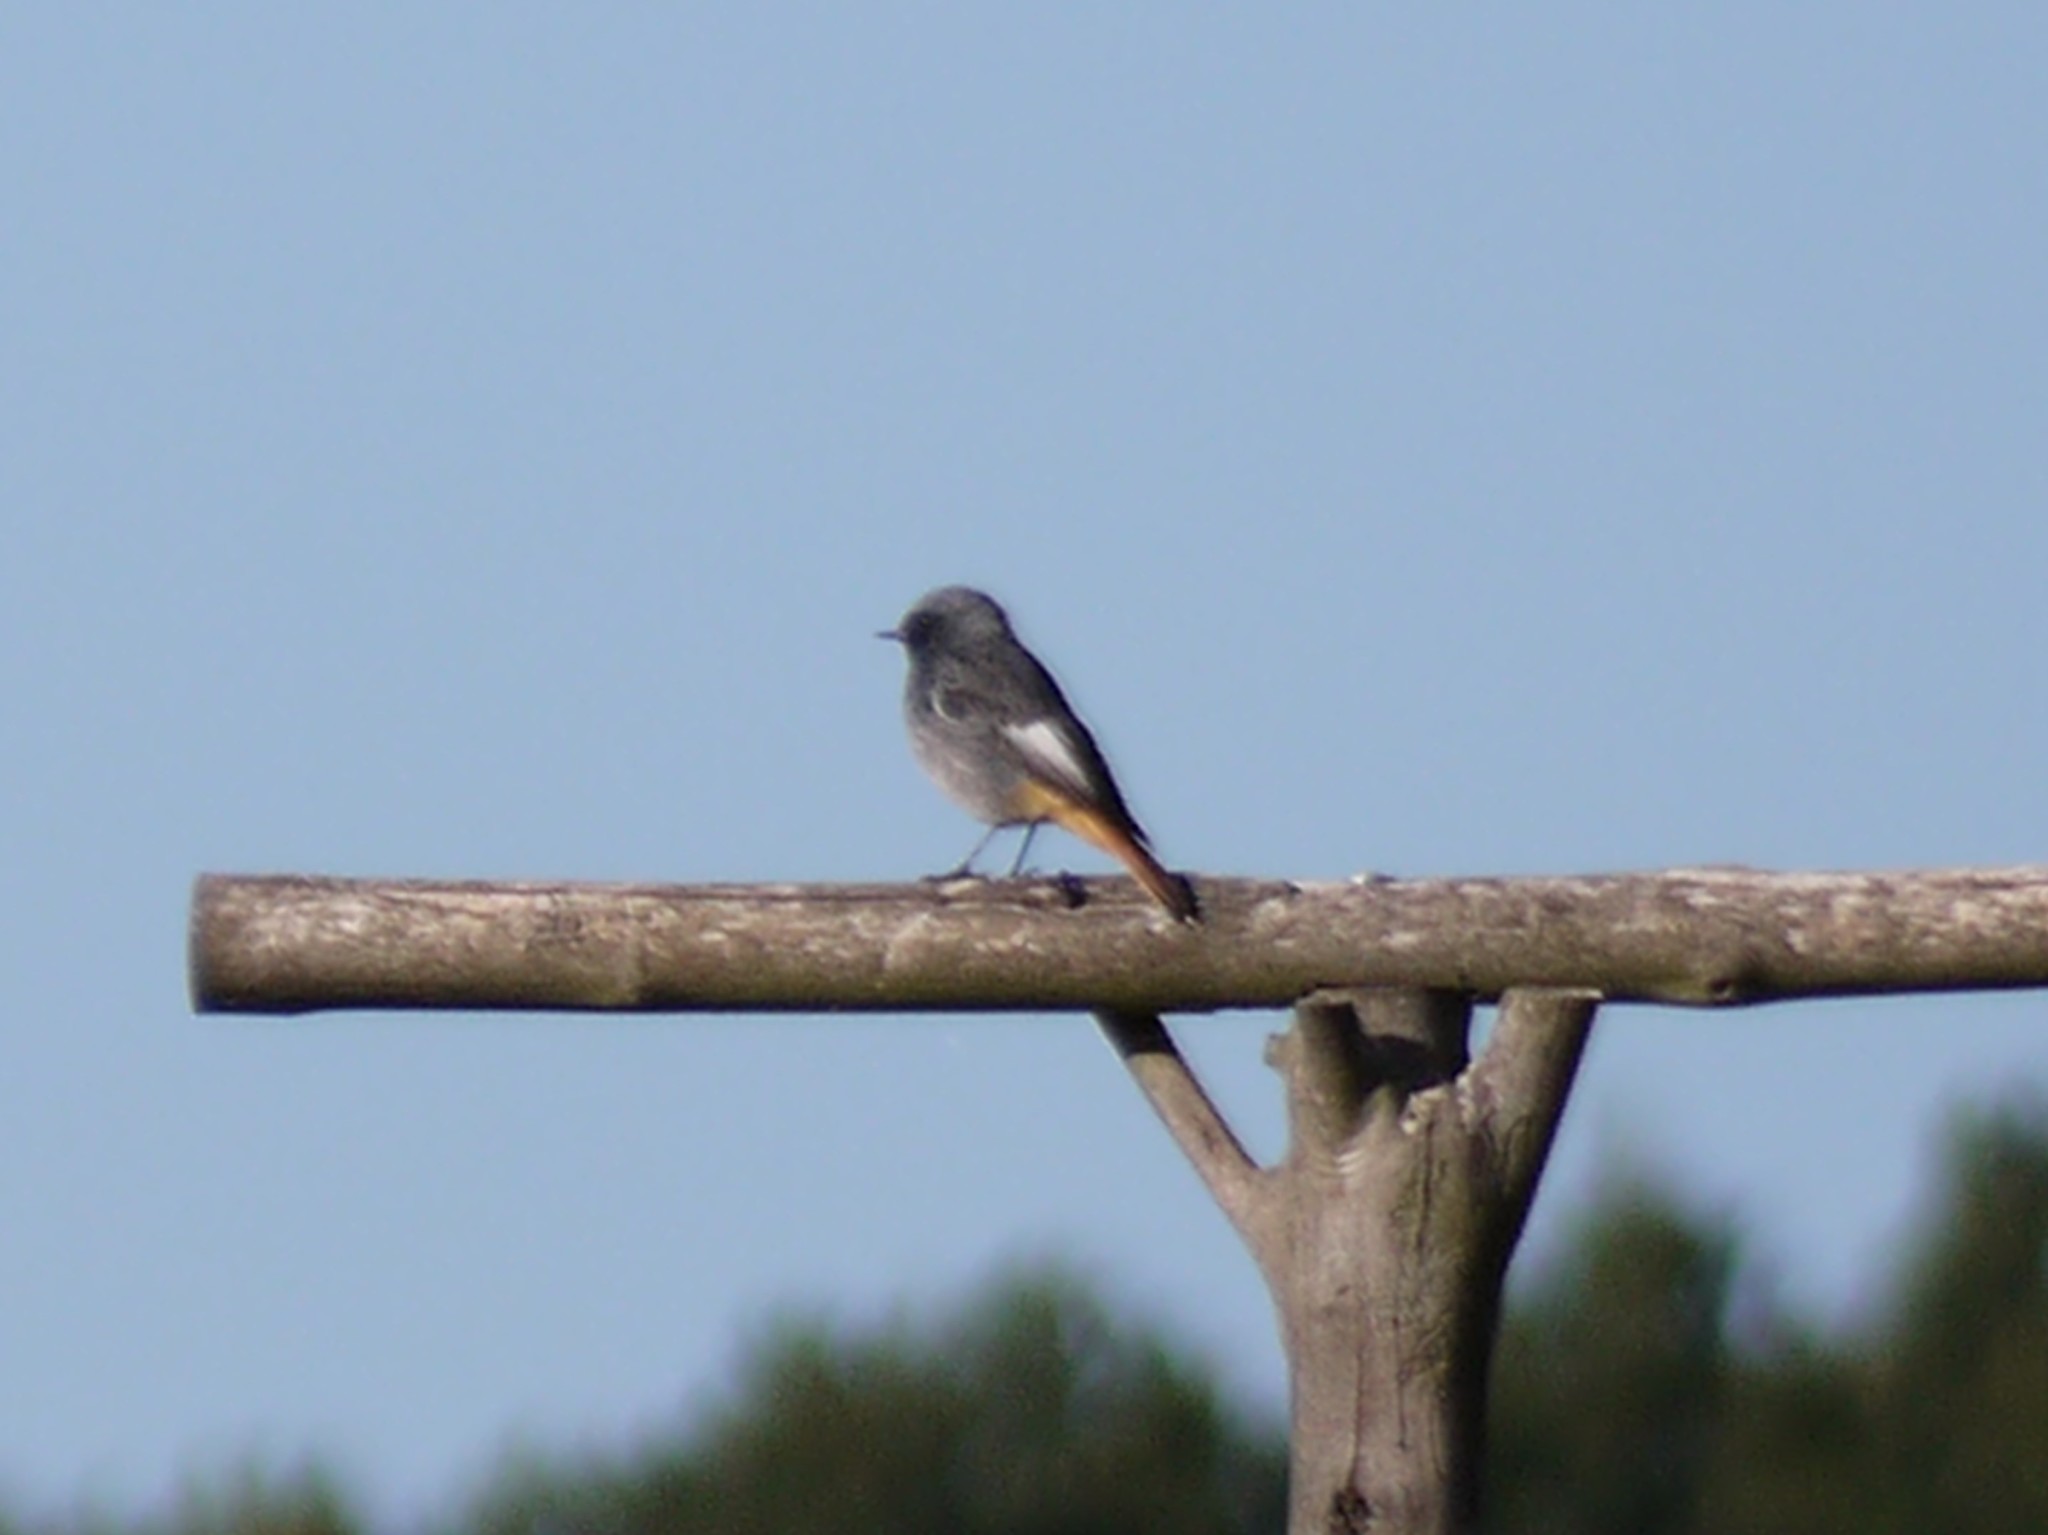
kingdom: Animalia
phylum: Chordata
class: Aves
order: Passeriformes
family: Muscicapidae
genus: Phoenicurus
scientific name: Phoenicurus ochruros
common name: Black redstart
